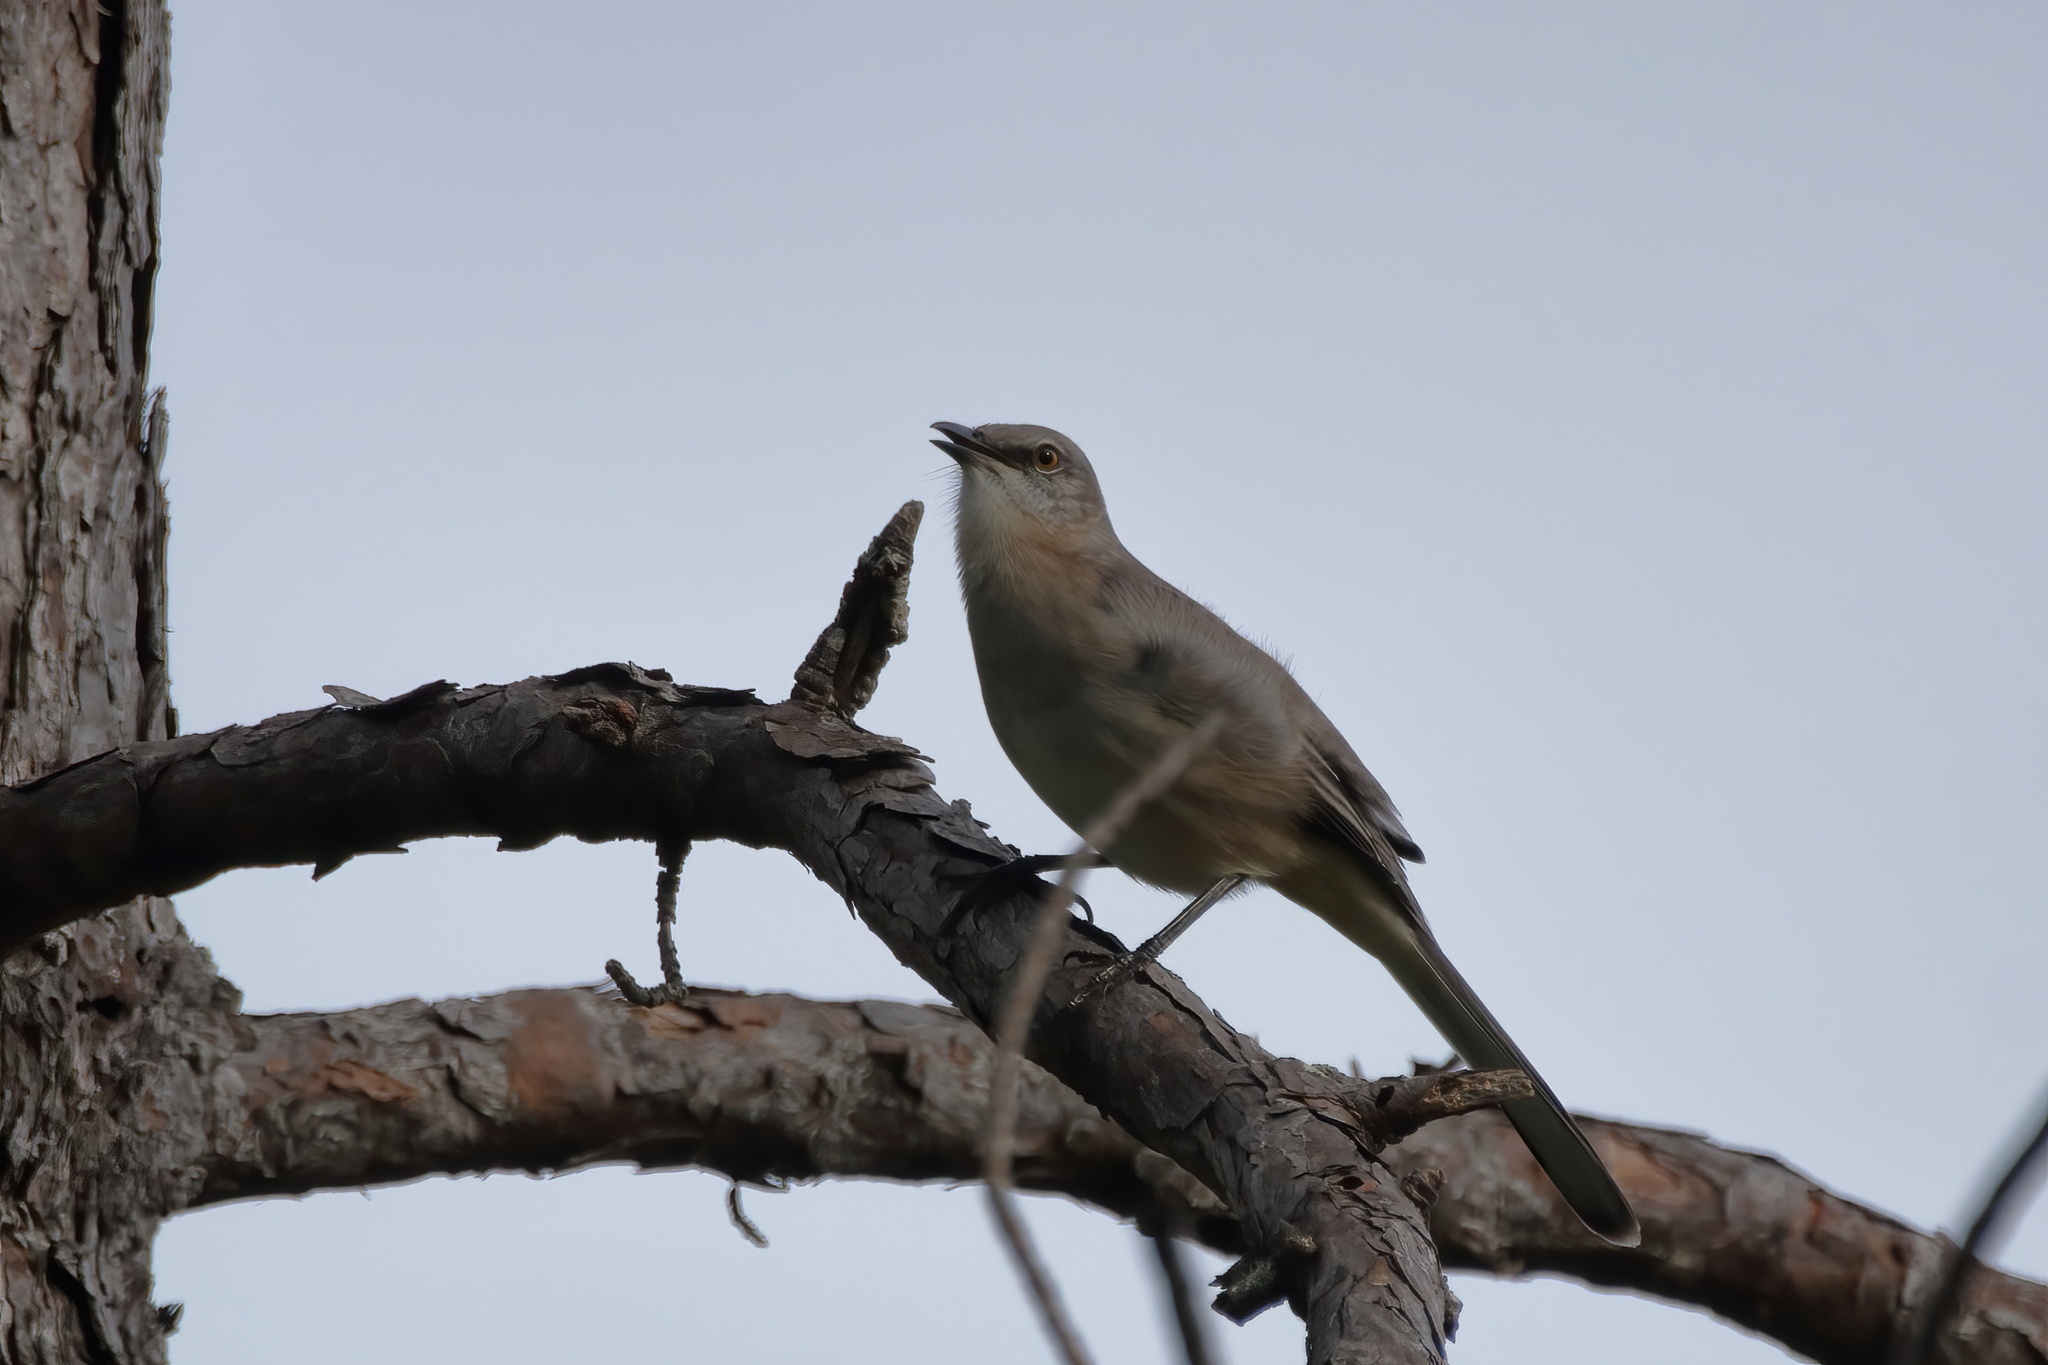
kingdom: Animalia
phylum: Chordata
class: Aves
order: Passeriformes
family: Mimidae
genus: Mimus
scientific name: Mimus polyglottos
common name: Northern mockingbird
